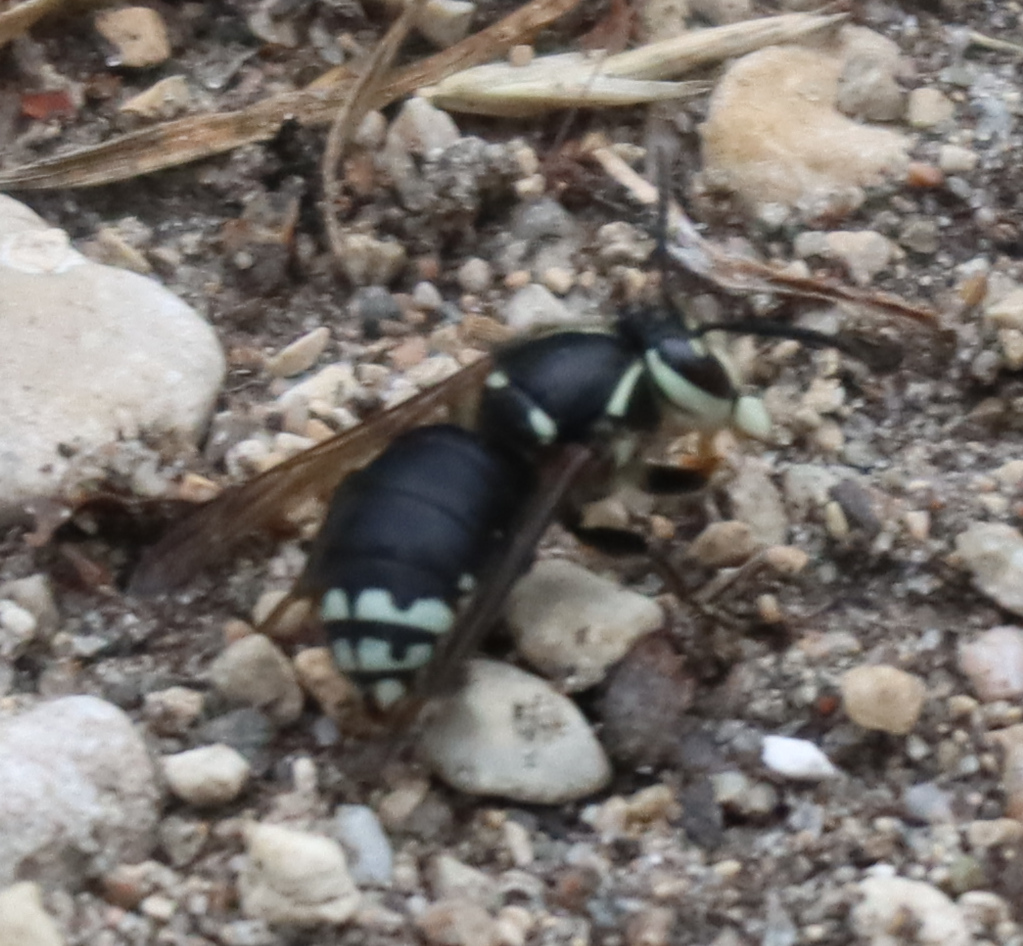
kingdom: Animalia
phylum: Arthropoda
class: Insecta
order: Hymenoptera
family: Vespidae
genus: Dolichovespula
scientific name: Dolichovespula maculata
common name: Bald-faced hornet
